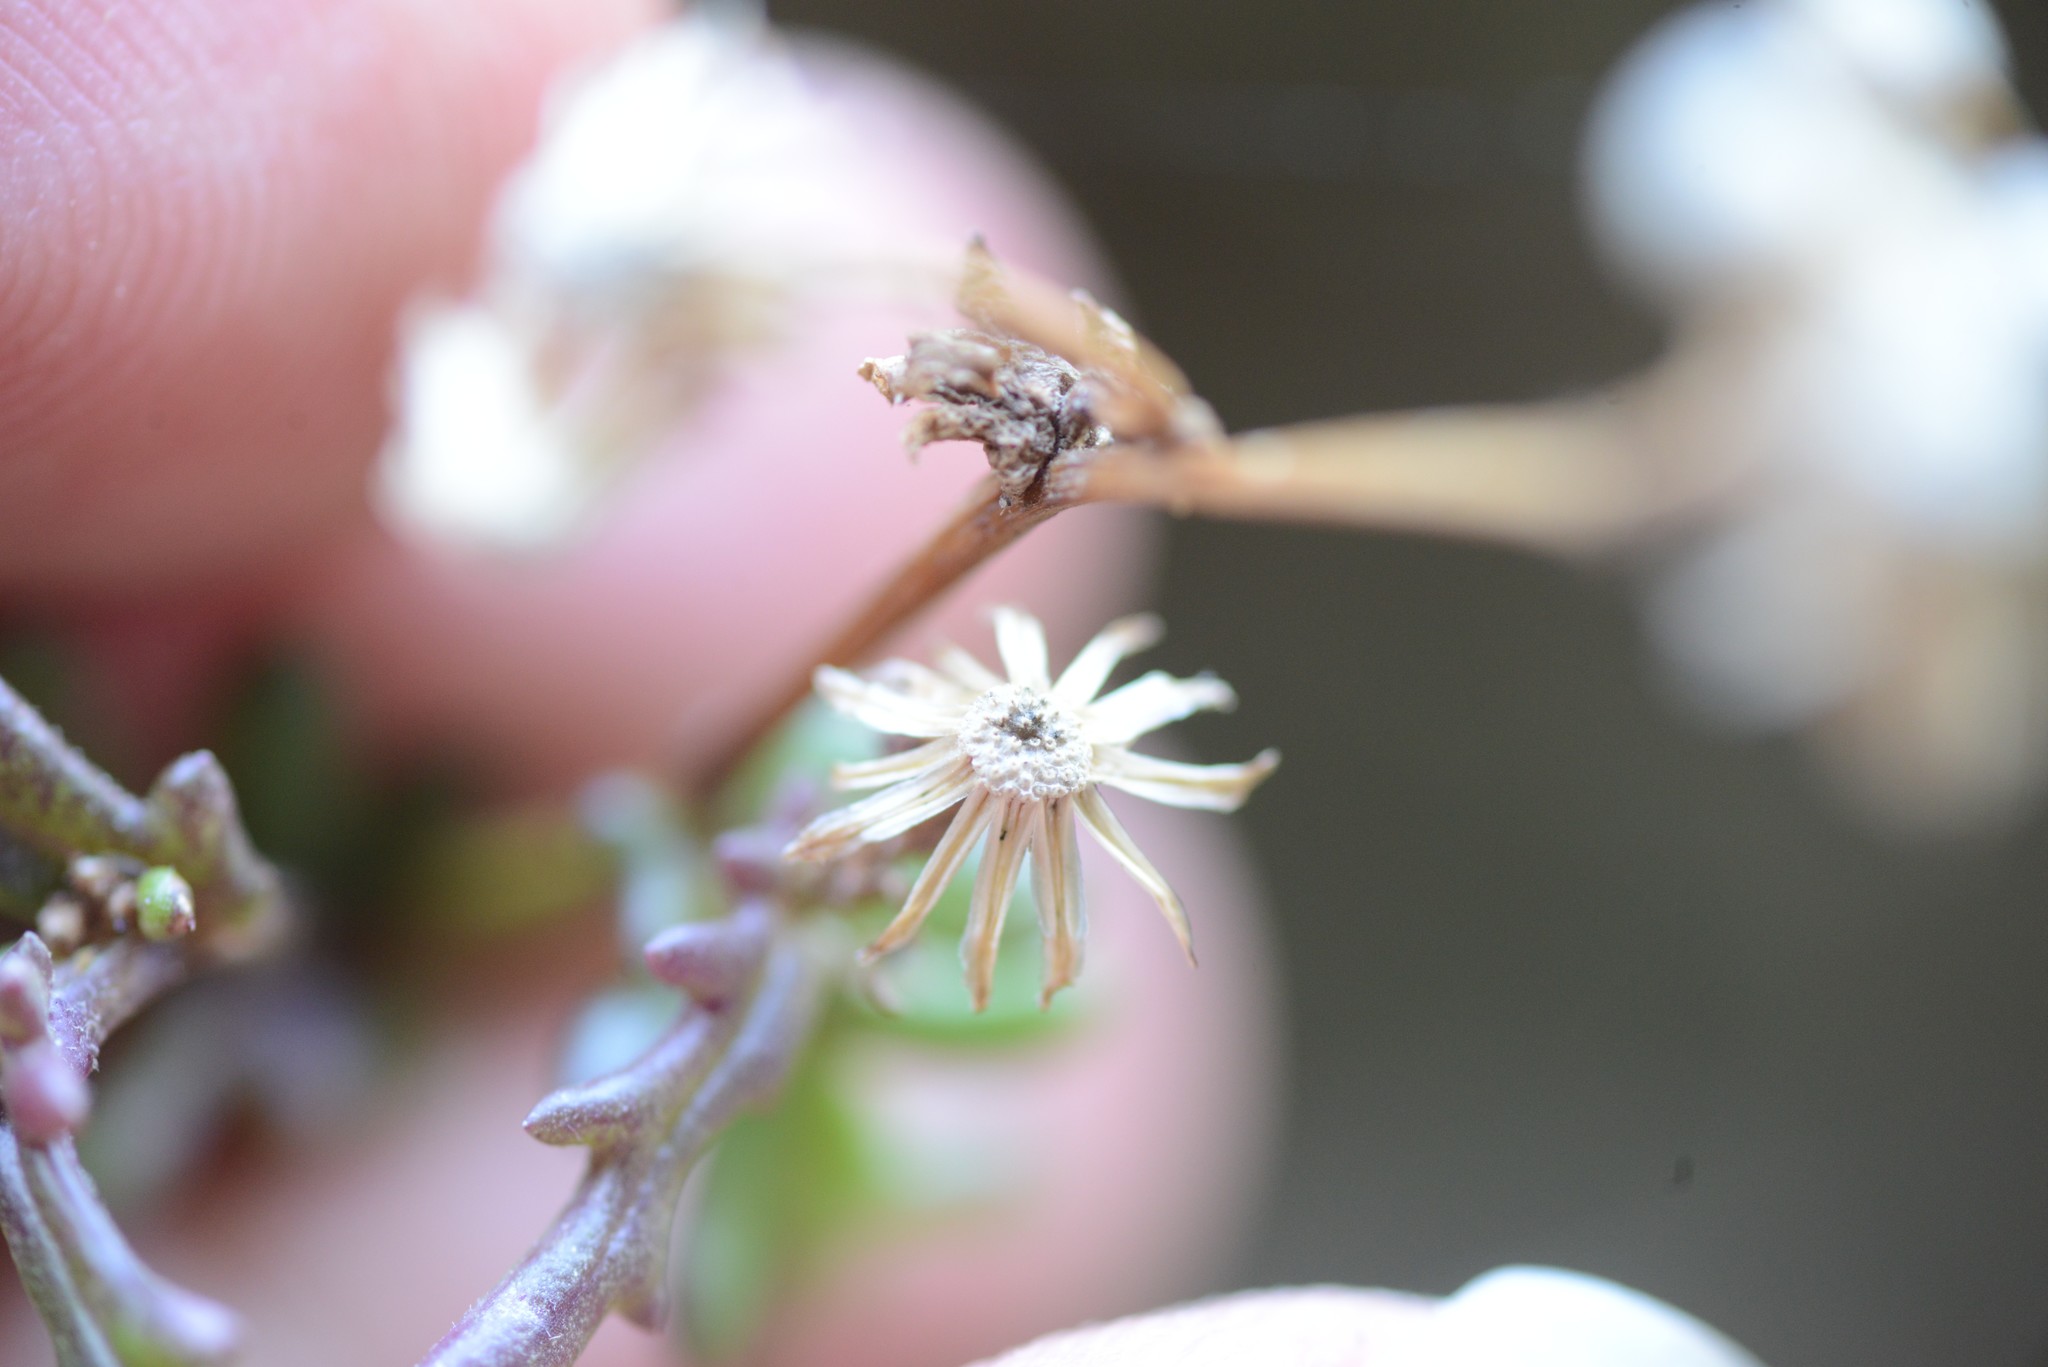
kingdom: Plantae
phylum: Tracheophyta
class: Magnoliopsida
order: Asterales
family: Asteraceae
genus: Senecio
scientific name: Senecio lautus
